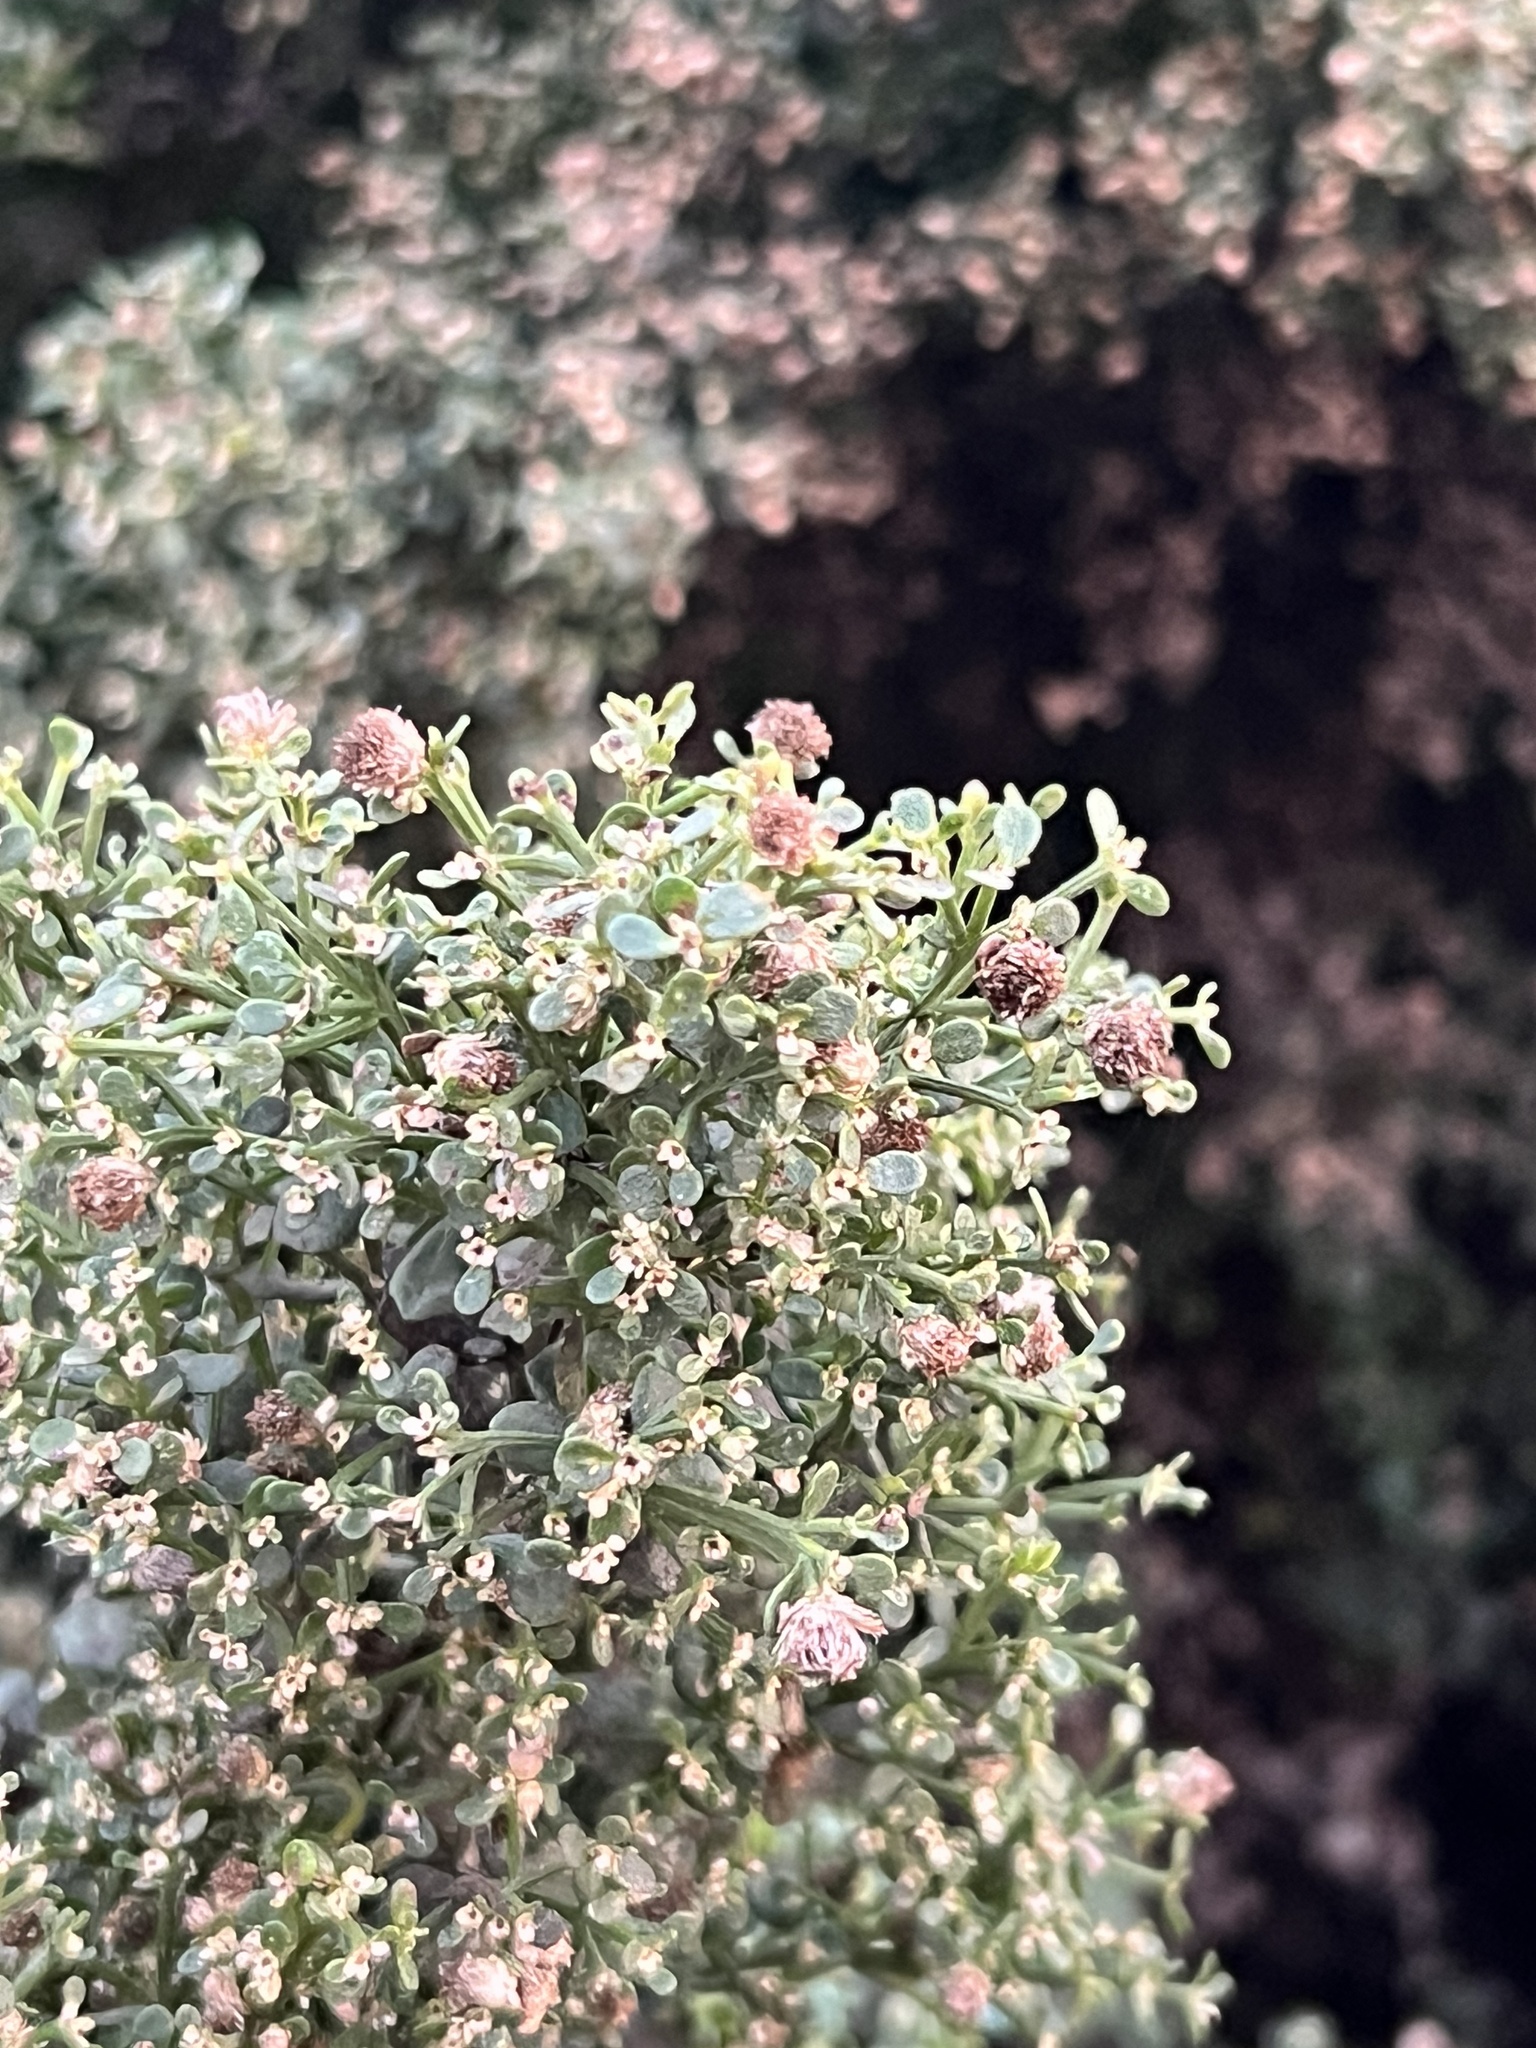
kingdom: Plantae
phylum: Tracheophyta
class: Magnoliopsida
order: Asterales
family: Asteraceae
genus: Baccharis
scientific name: Baccharis pilularis
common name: Coyotebrush
